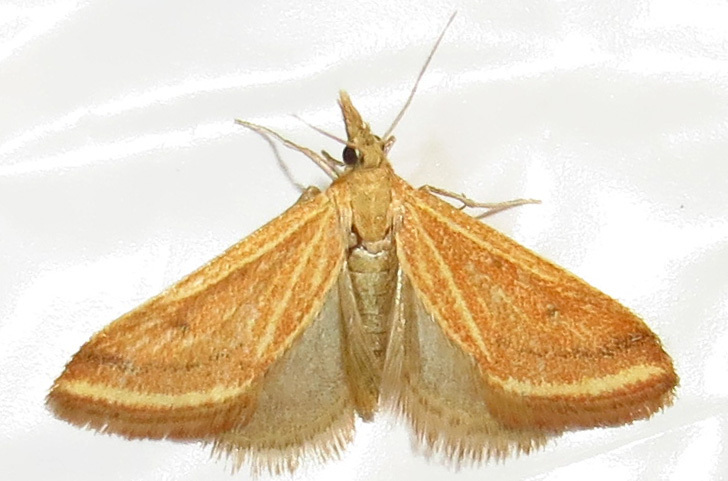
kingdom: Animalia
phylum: Arthropoda
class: Insecta
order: Lepidoptera
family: Crambidae
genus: Microtheoris
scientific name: Microtheoris ophionalis
